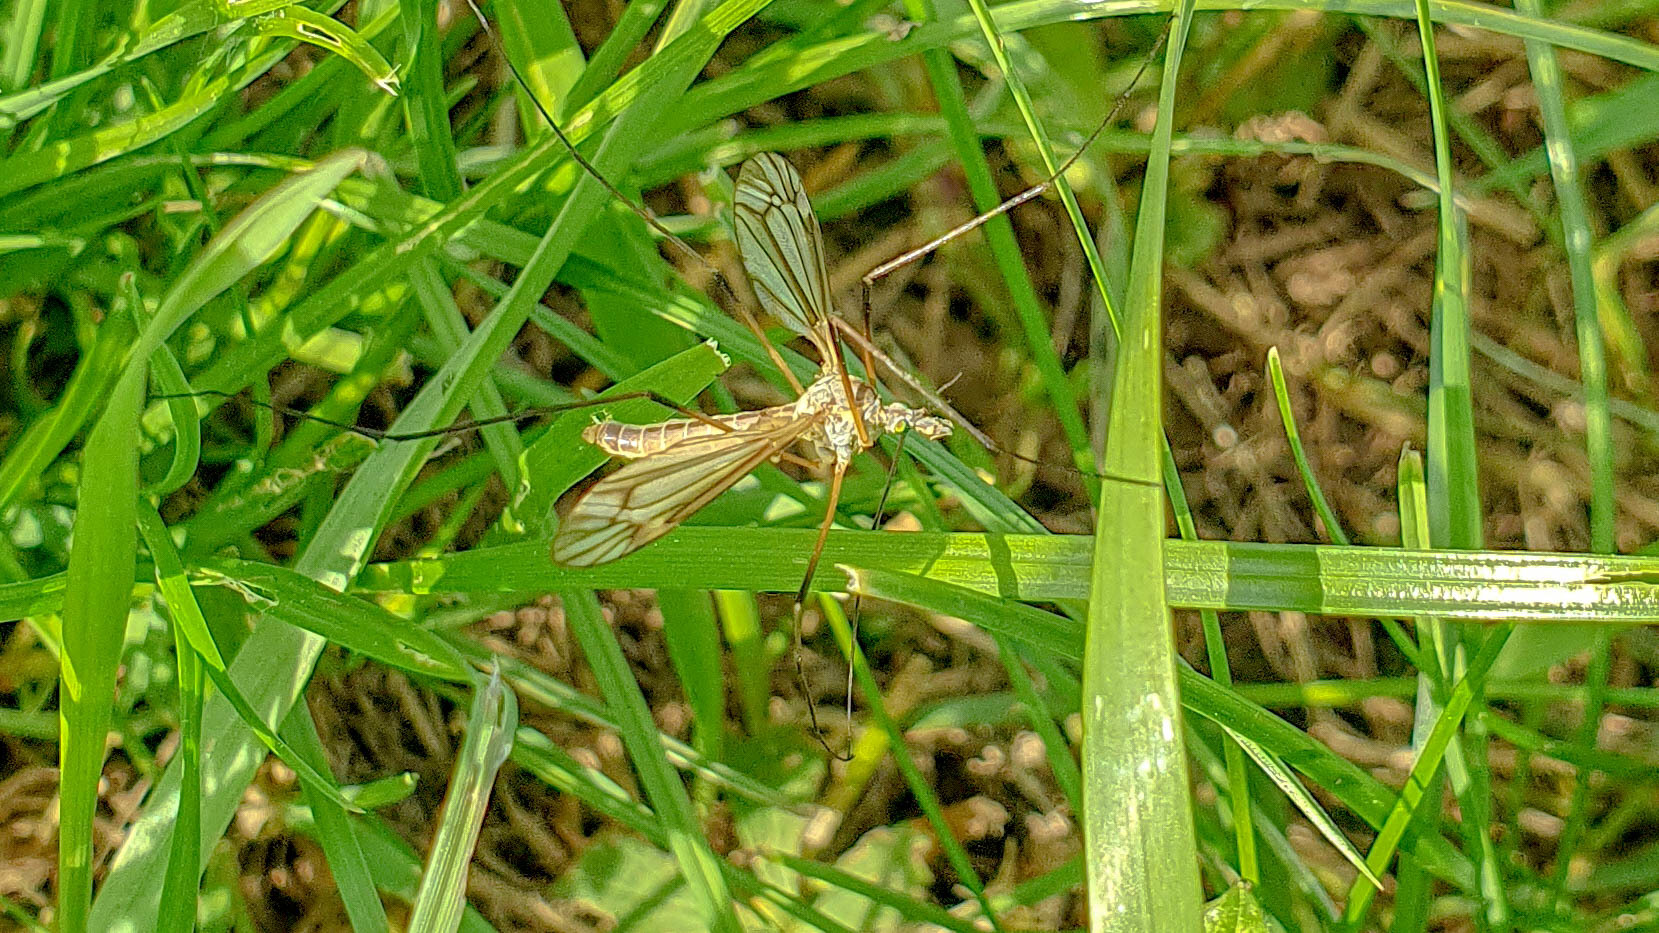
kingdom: Animalia
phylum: Arthropoda
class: Insecta
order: Diptera
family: Tipulidae
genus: Tipula
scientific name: Tipula vernalis
